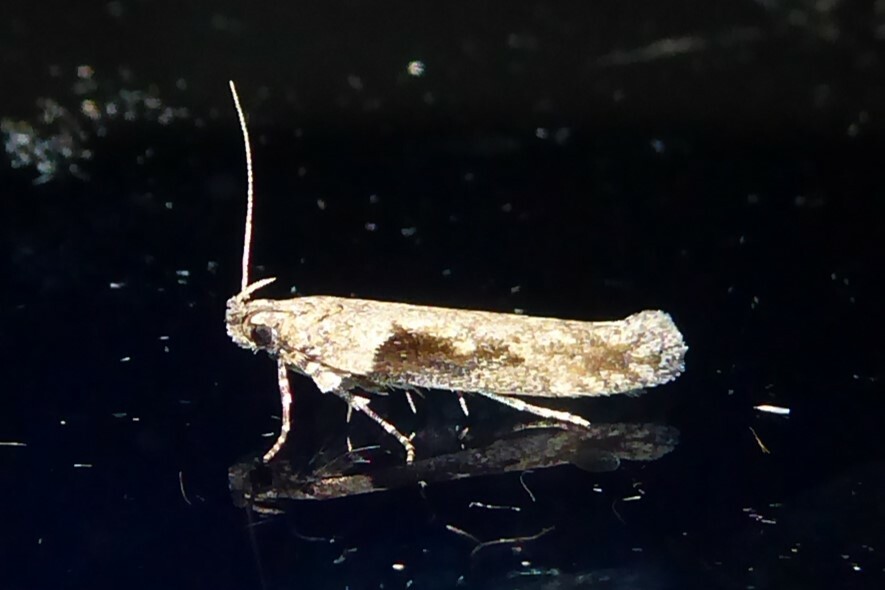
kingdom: Animalia
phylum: Arthropoda
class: Insecta
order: Lepidoptera
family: Gelechiidae
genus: Symmetrischema
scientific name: Symmetrischema tangolias
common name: Moth
